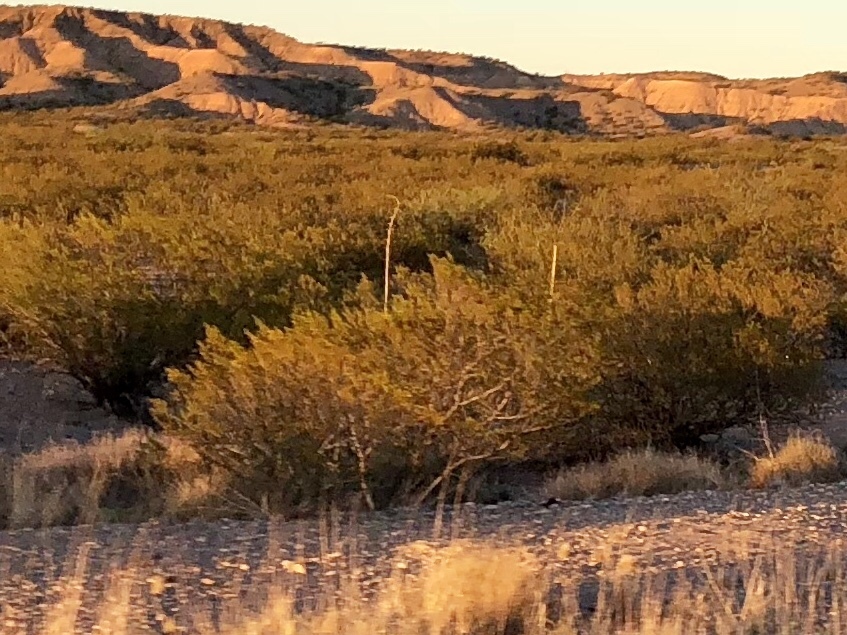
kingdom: Plantae
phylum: Tracheophyta
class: Magnoliopsida
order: Zygophyllales
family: Zygophyllaceae
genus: Larrea
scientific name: Larrea tridentata
